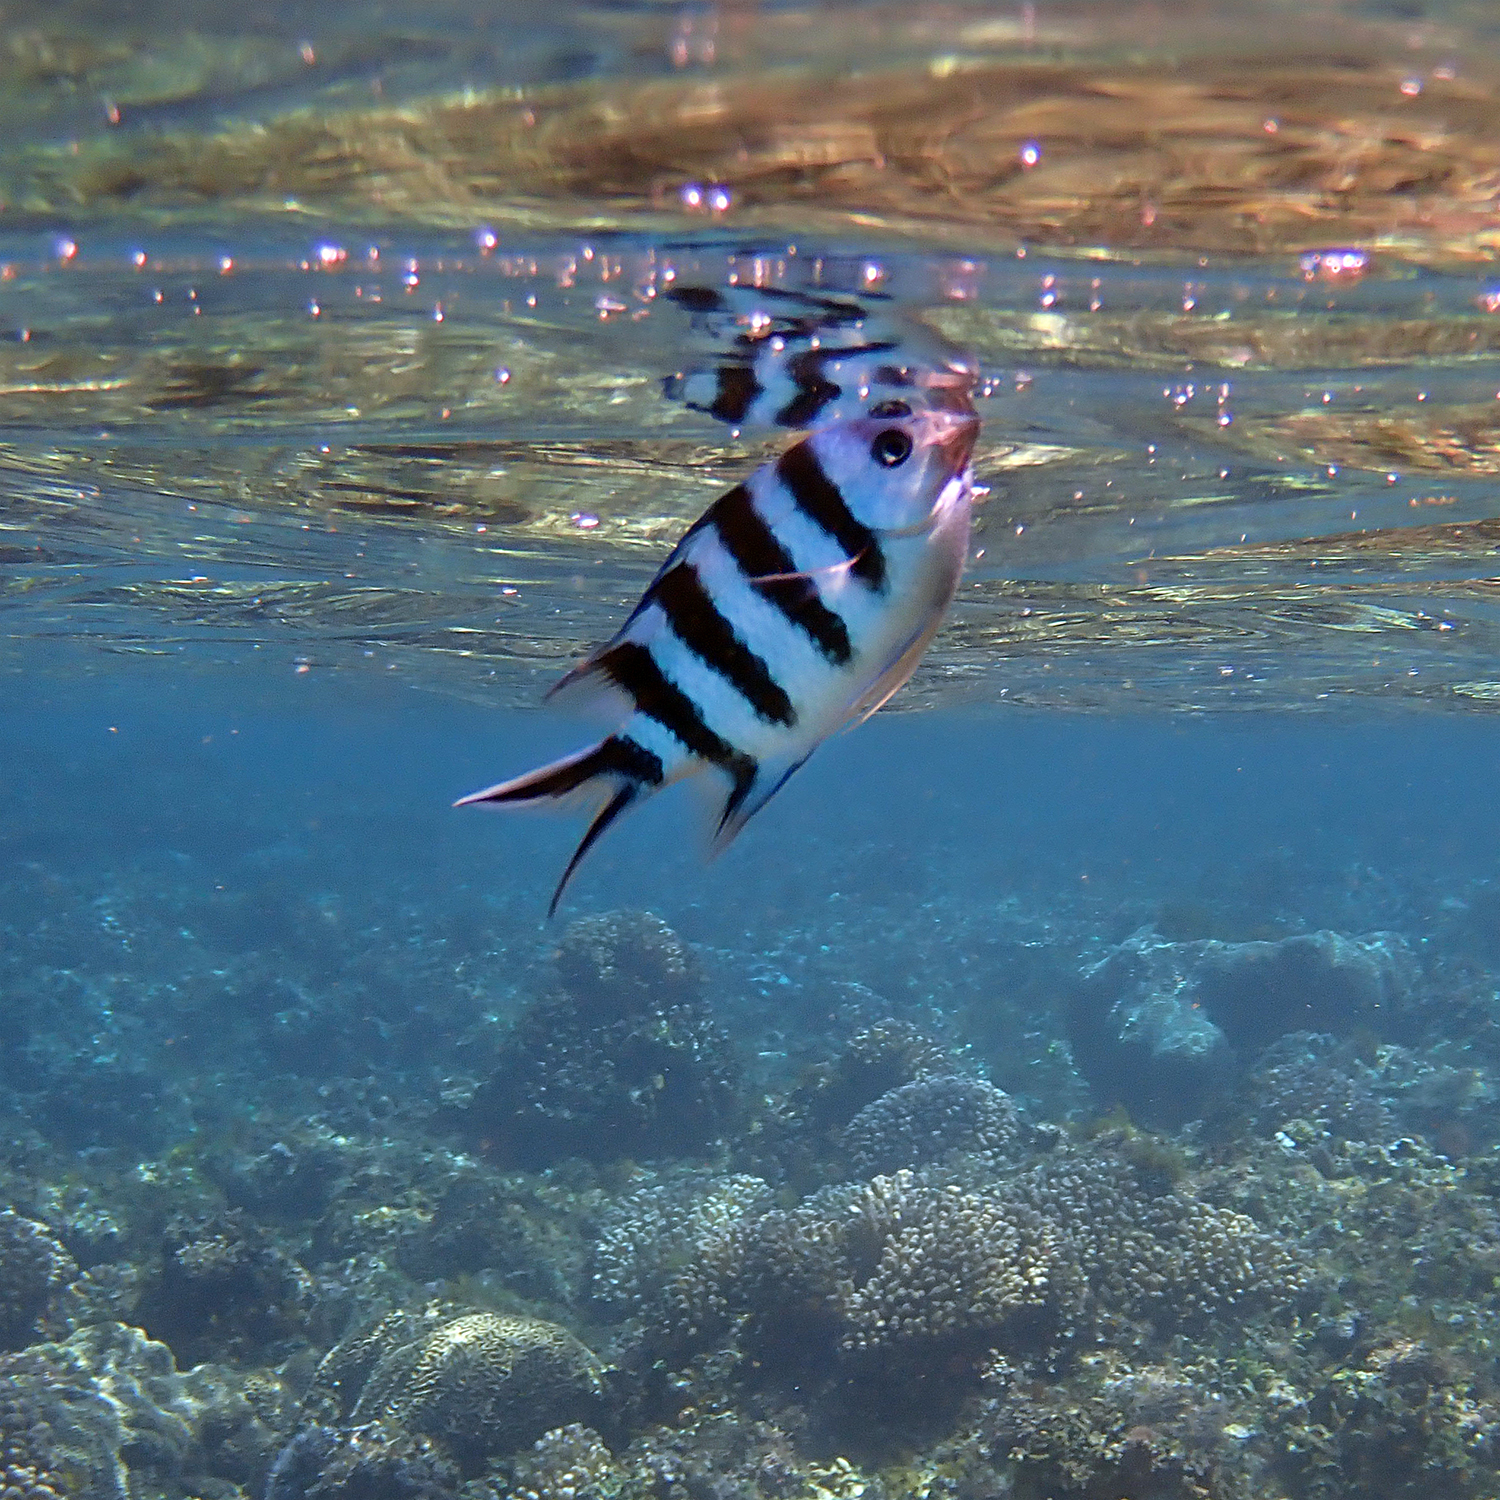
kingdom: Animalia
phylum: Chordata
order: Perciformes
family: Pomacentridae
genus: Abudefduf
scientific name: Abudefduf sexfasciatus
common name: Scissortail sergeant
